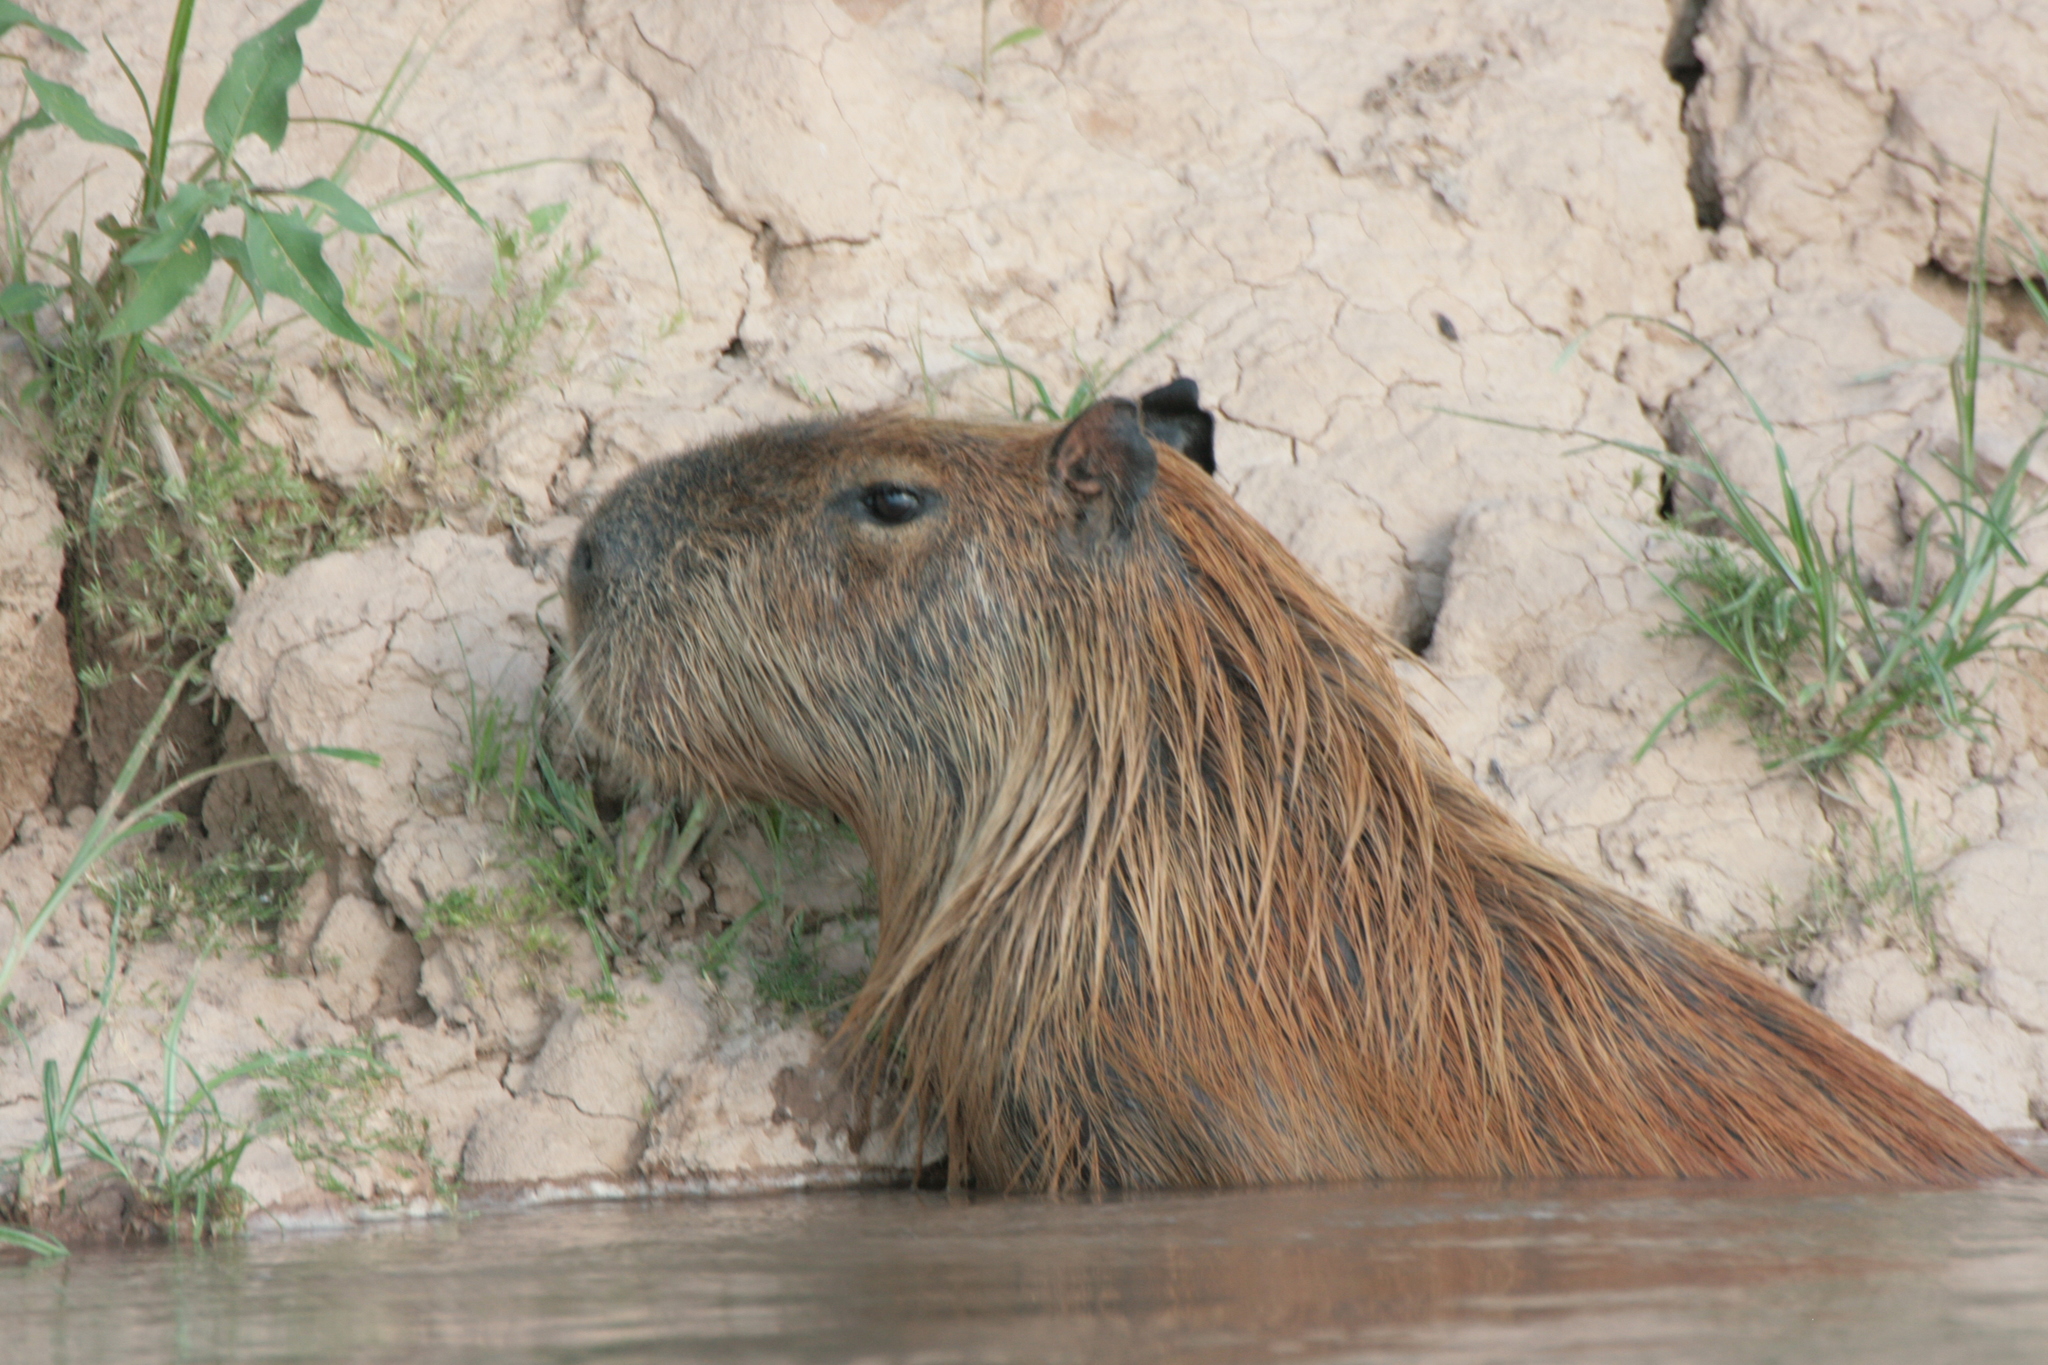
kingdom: Animalia
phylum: Chordata
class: Mammalia
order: Rodentia
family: Caviidae
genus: Hydrochoerus
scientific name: Hydrochoerus hydrochaeris
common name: Capybara
